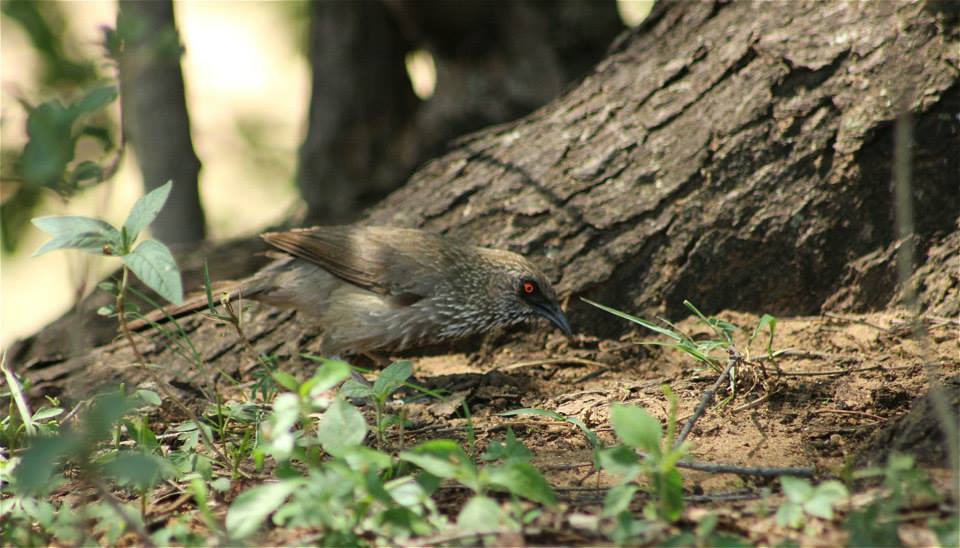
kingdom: Animalia
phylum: Chordata
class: Aves
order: Passeriformes
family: Leiothrichidae
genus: Turdoides
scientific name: Turdoides jardineii
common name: Arrow-marked babbler
